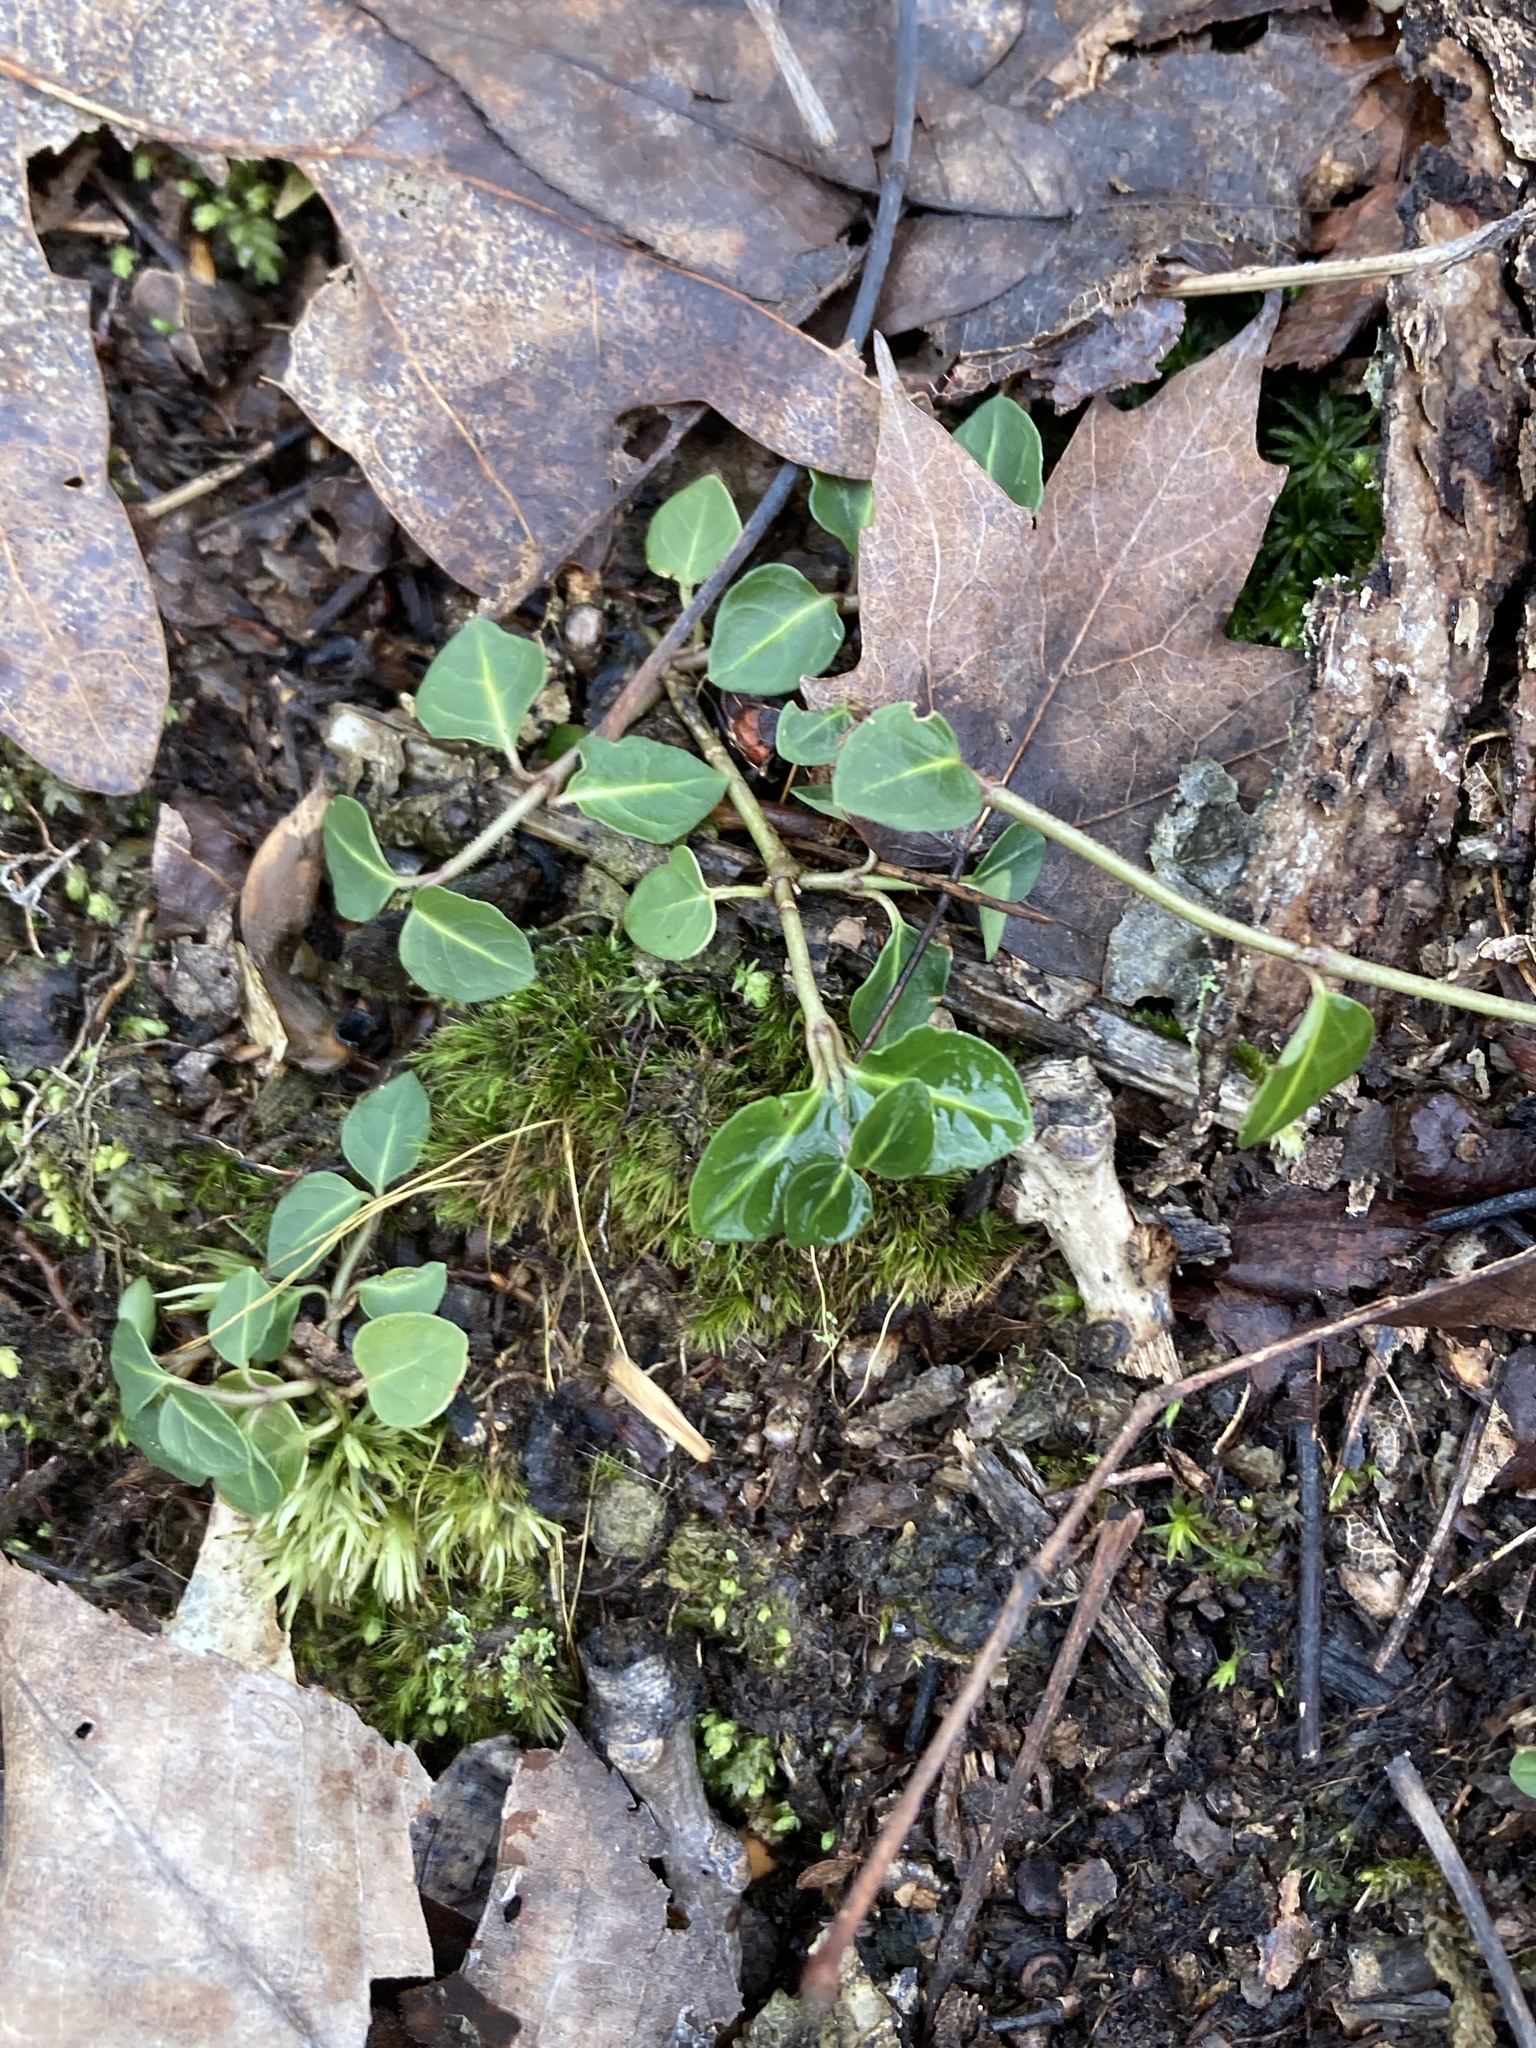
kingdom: Plantae
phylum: Tracheophyta
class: Magnoliopsida
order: Gentianales
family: Rubiaceae
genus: Mitchella
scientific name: Mitchella repens
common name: Partridge-berry
